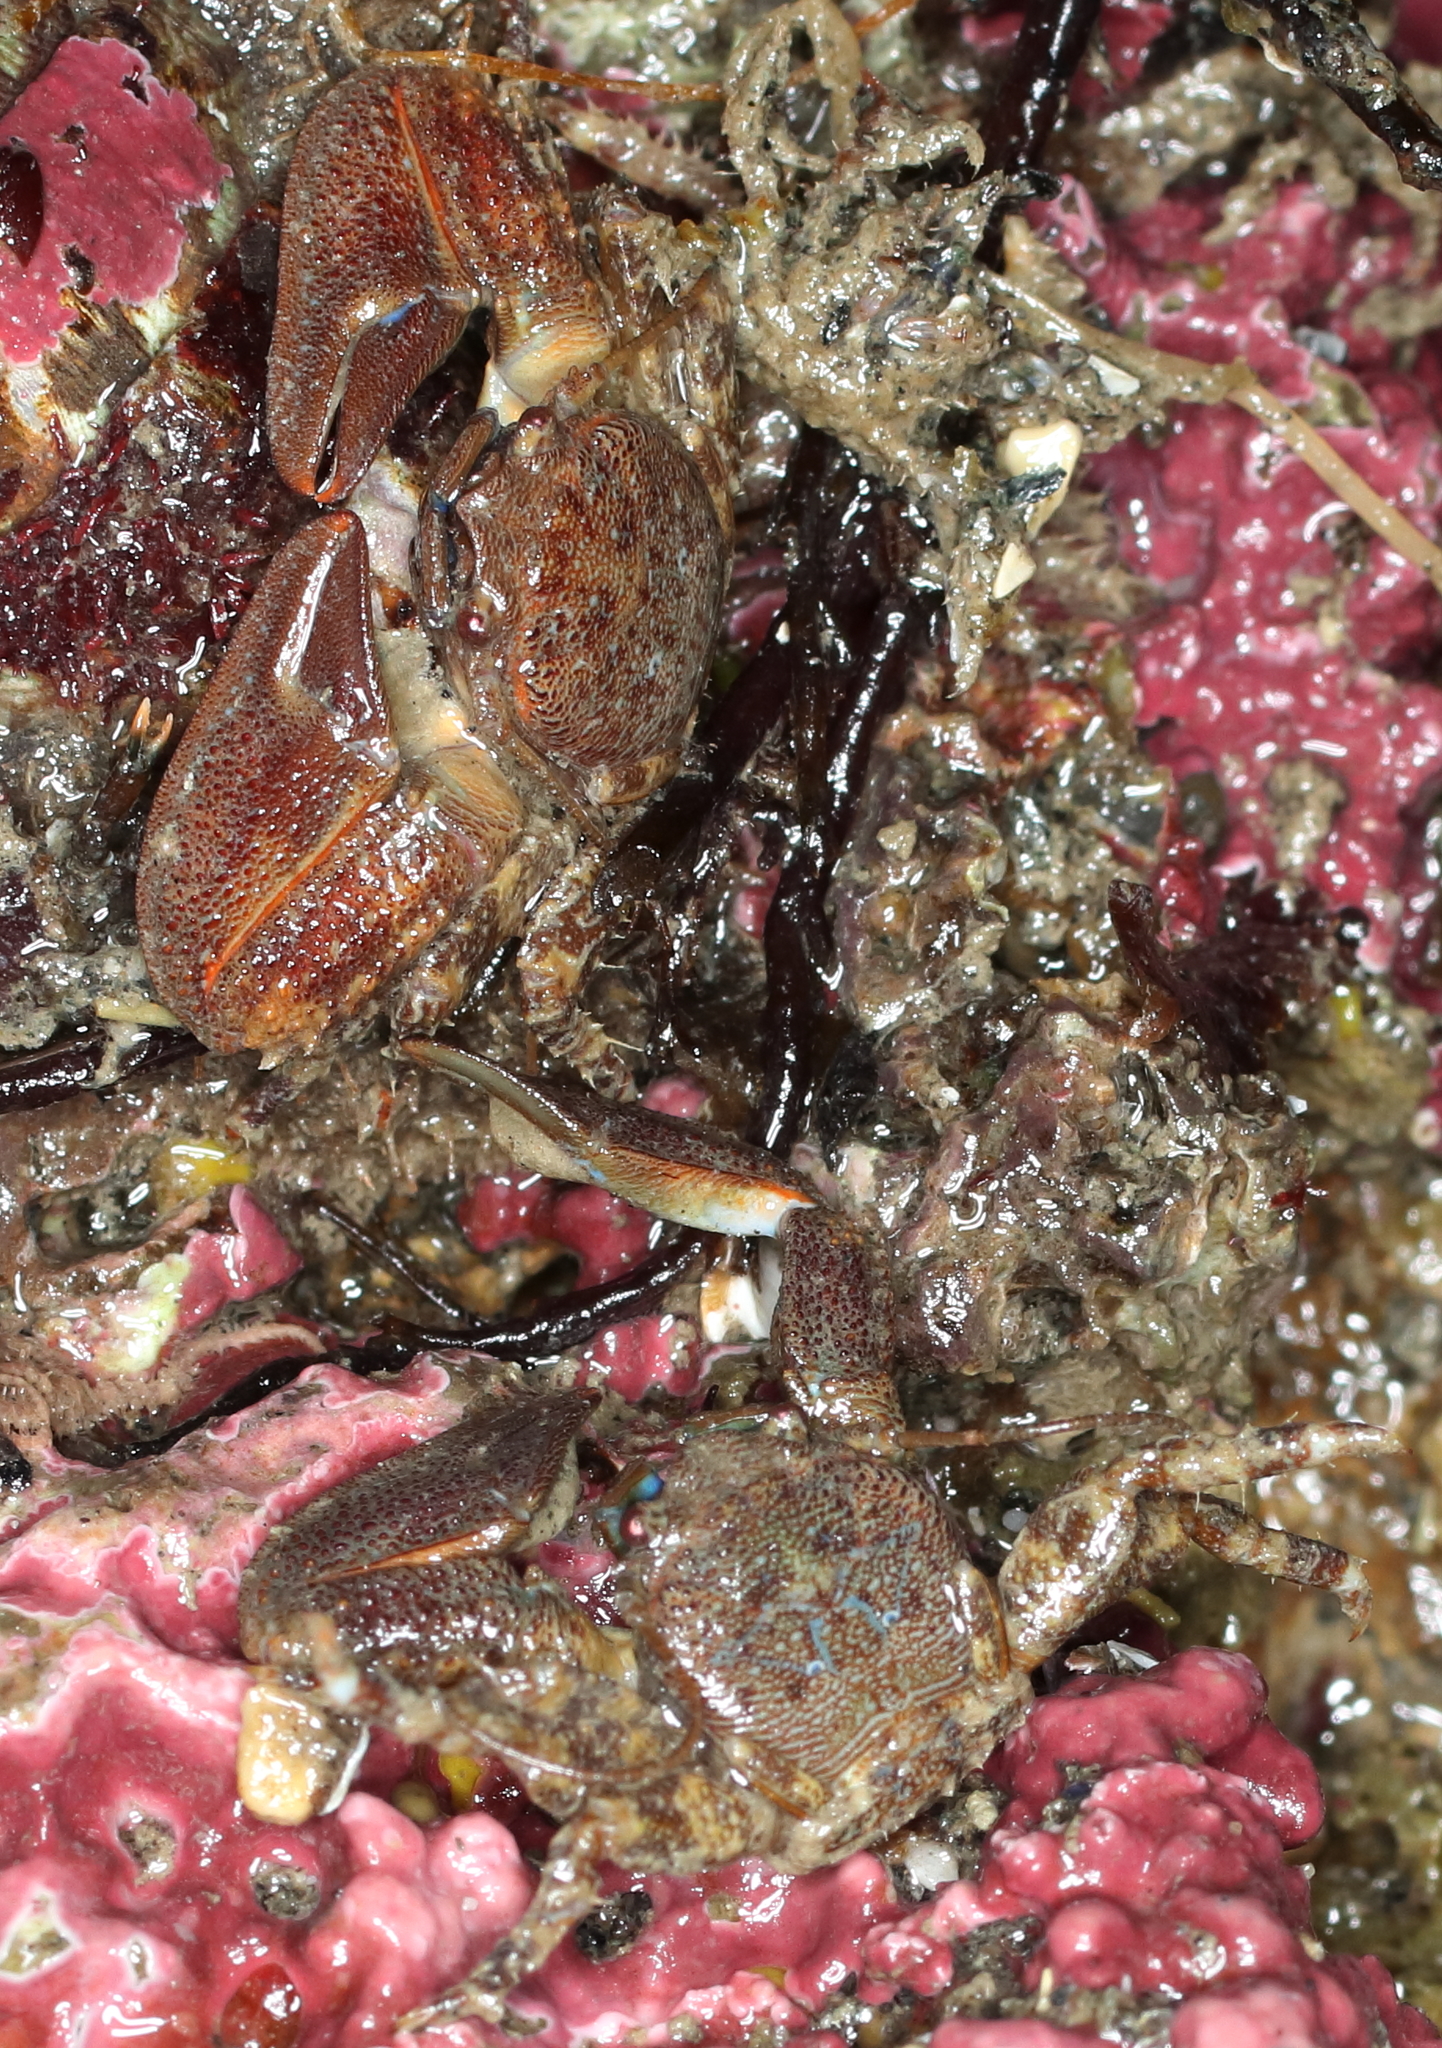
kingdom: Animalia
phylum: Arthropoda
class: Malacostraca
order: Decapoda
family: Porcellanidae
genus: Petrolisthes
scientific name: Petrolisthes eriomerus
